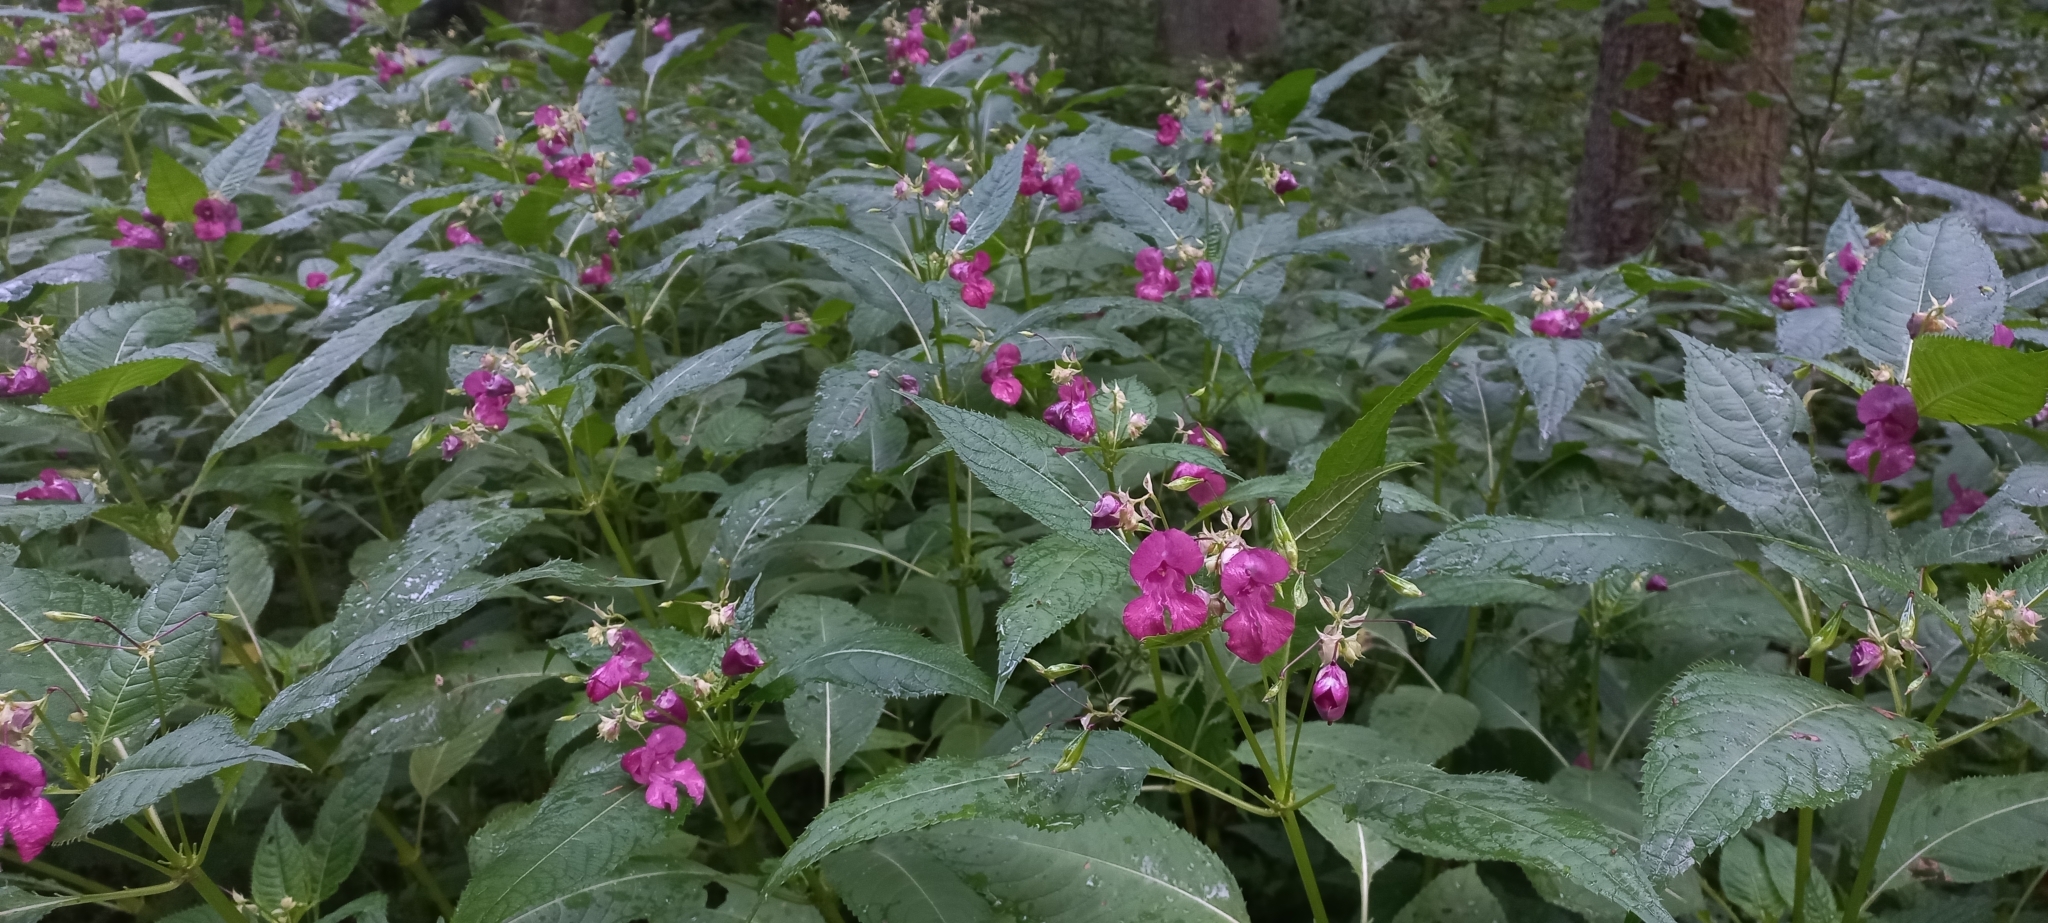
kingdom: Plantae
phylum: Tracheophyta
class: Magnoliopsida
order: Ericales
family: Balsaminaceae
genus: Impatiens
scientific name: Impatiens glandulifera
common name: Himalayan balsam
